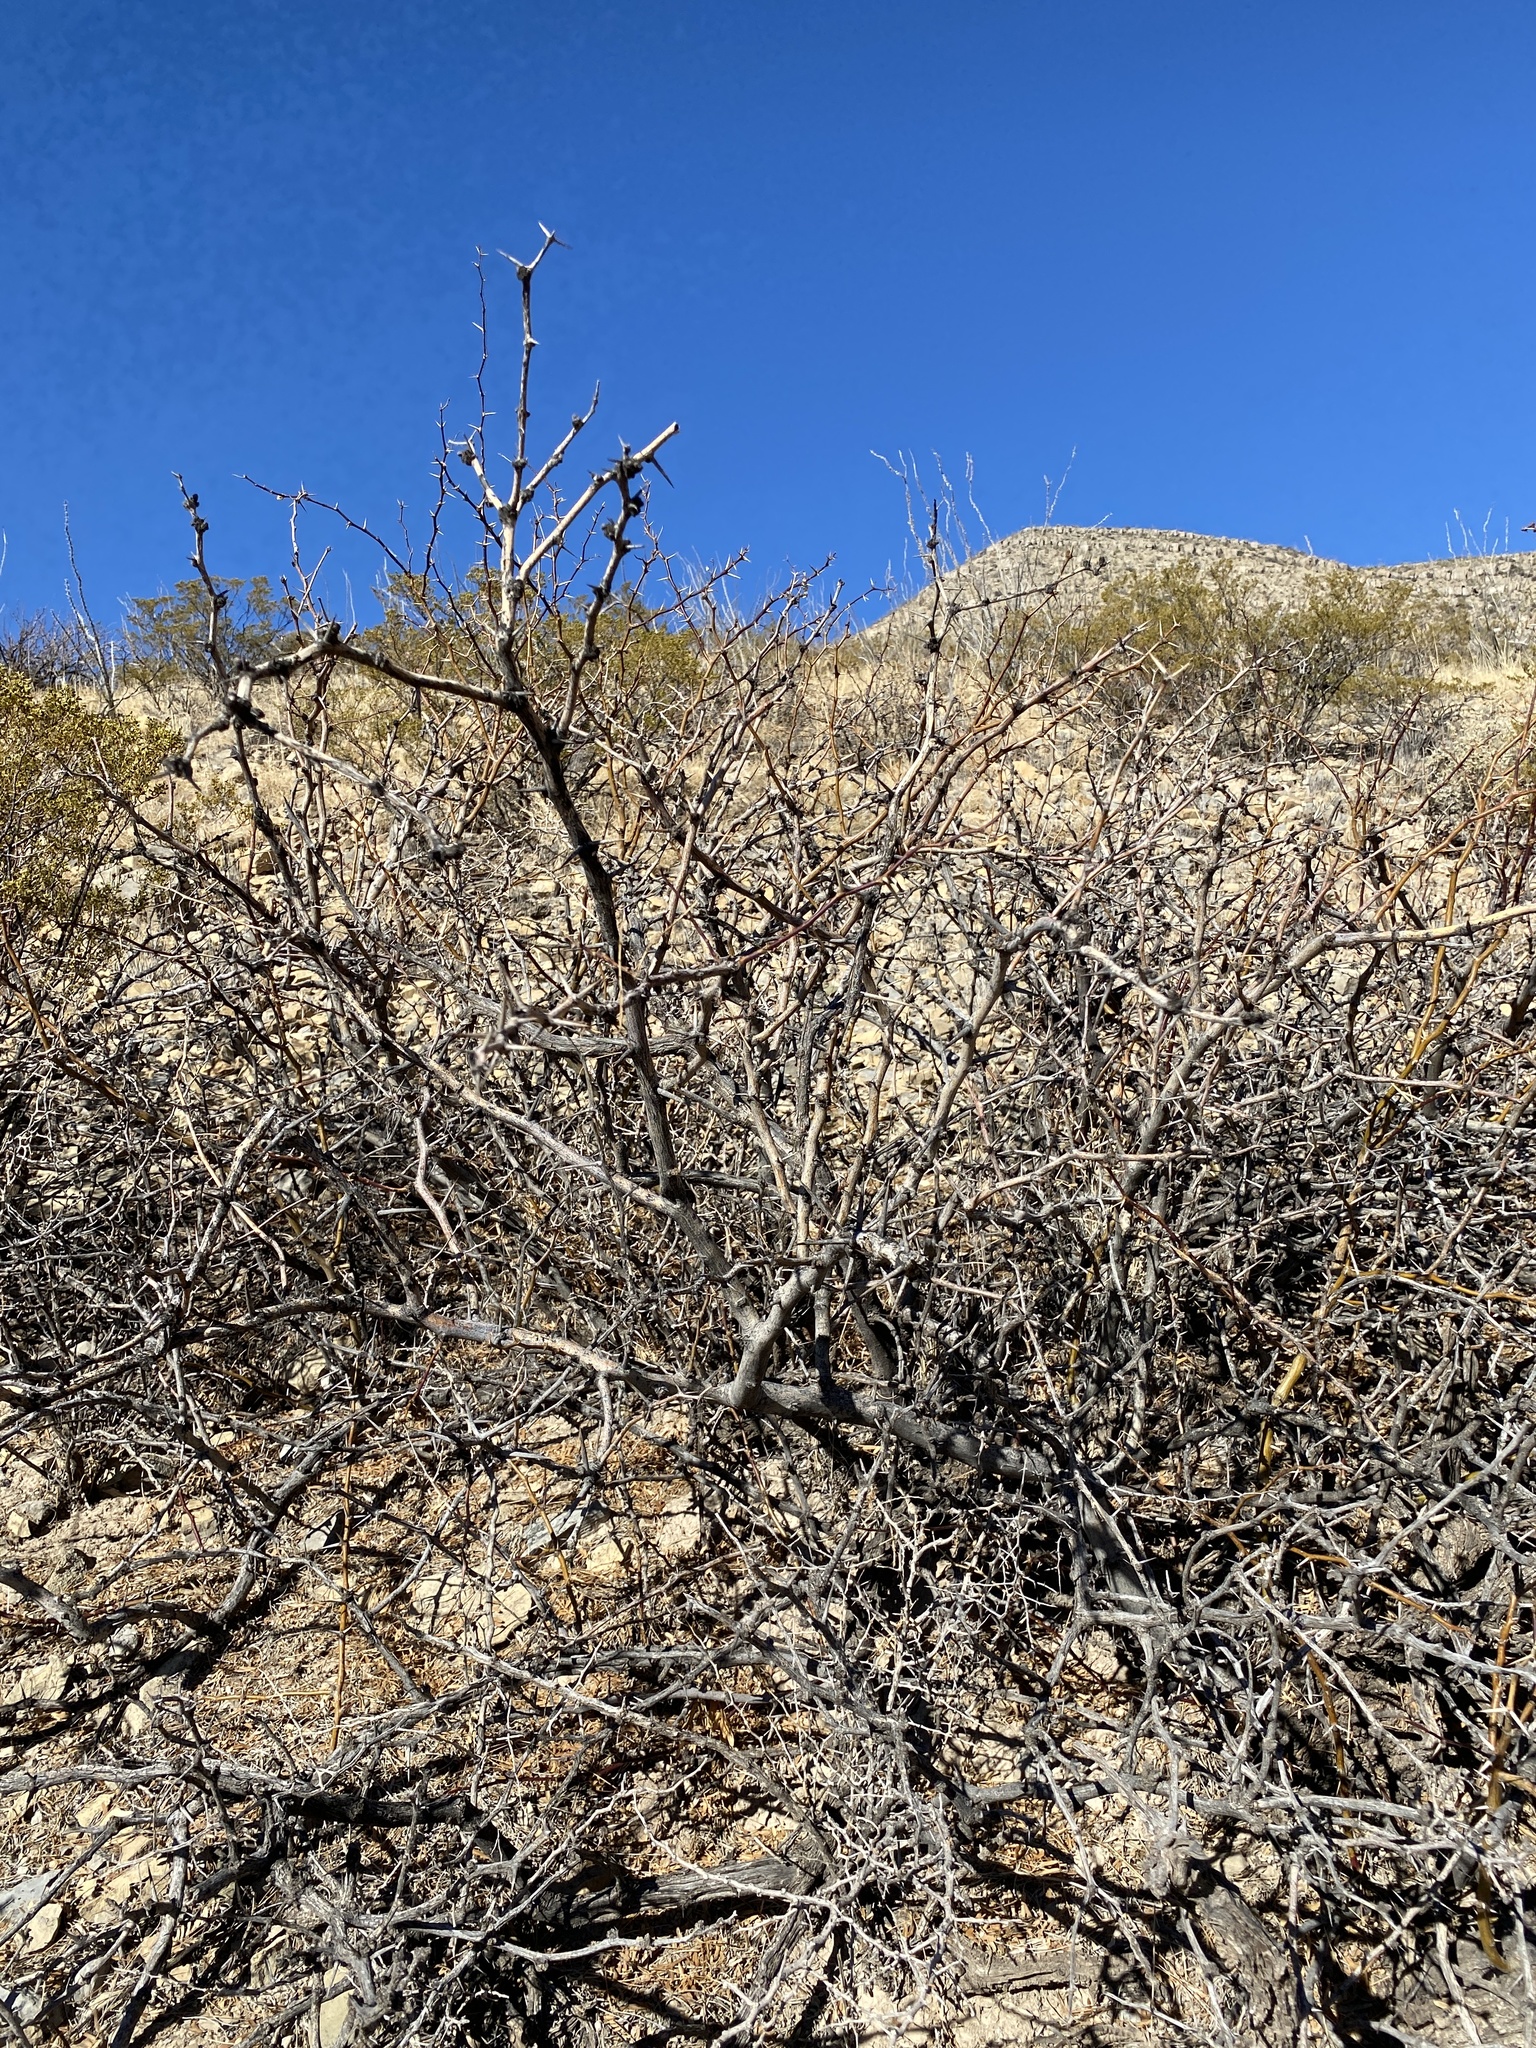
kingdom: Plantae
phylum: Tracheophyta
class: Magnoliopsida
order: Fabales
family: Fabaceae
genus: Prosopis
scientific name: Prosopis glandulosa
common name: Honey mesquite
